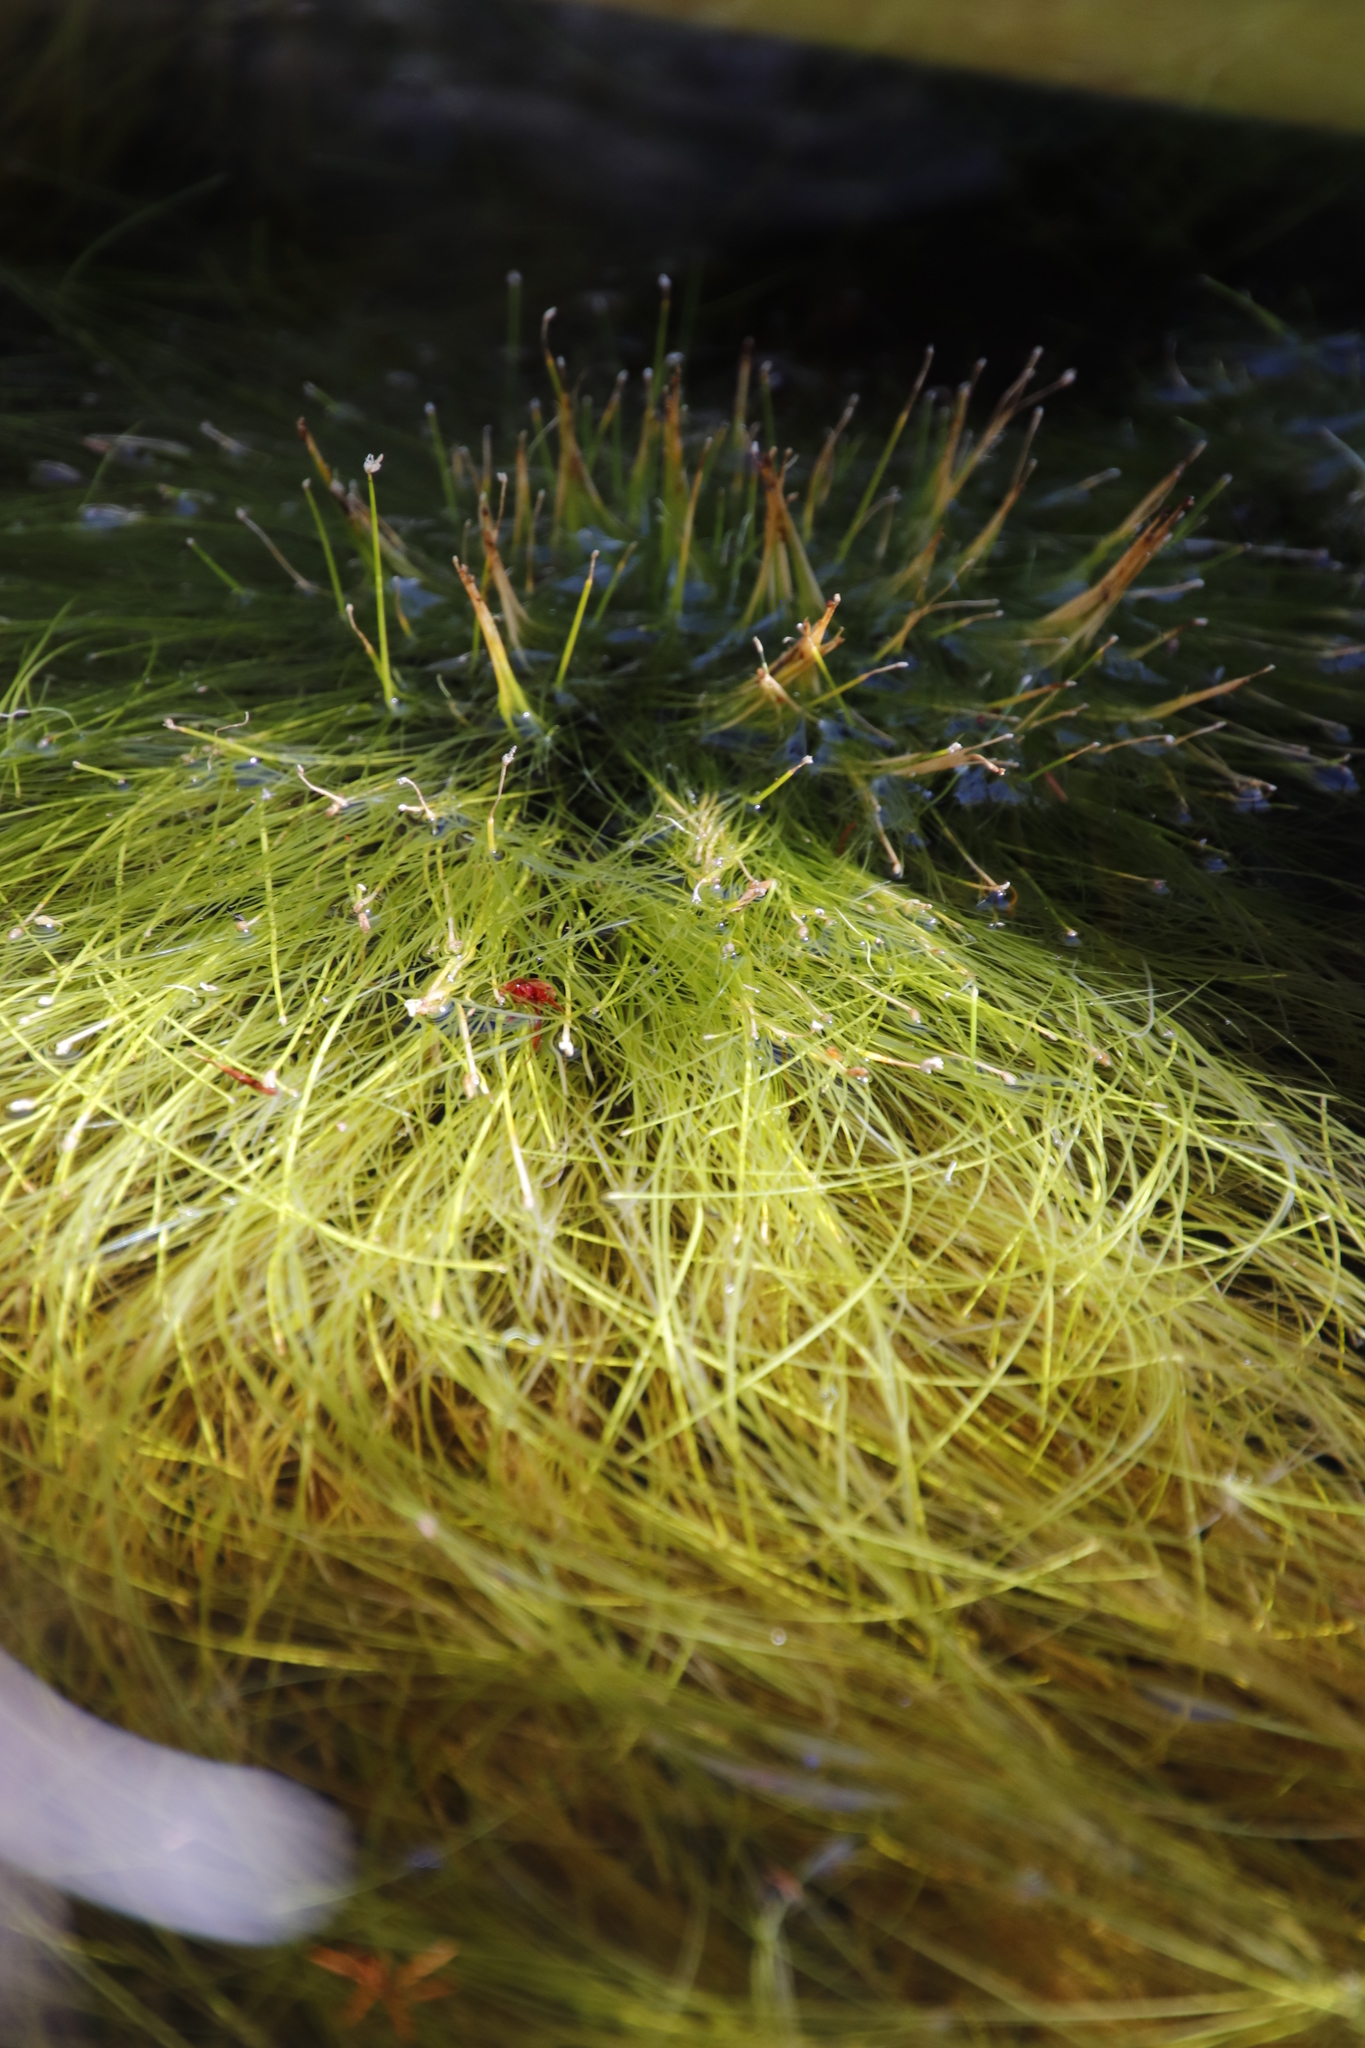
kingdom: Plantae
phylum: Tracheophyta
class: Liliopsida
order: Poales
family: Cyperaceae
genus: Isolepis
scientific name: Isolepis digitata
